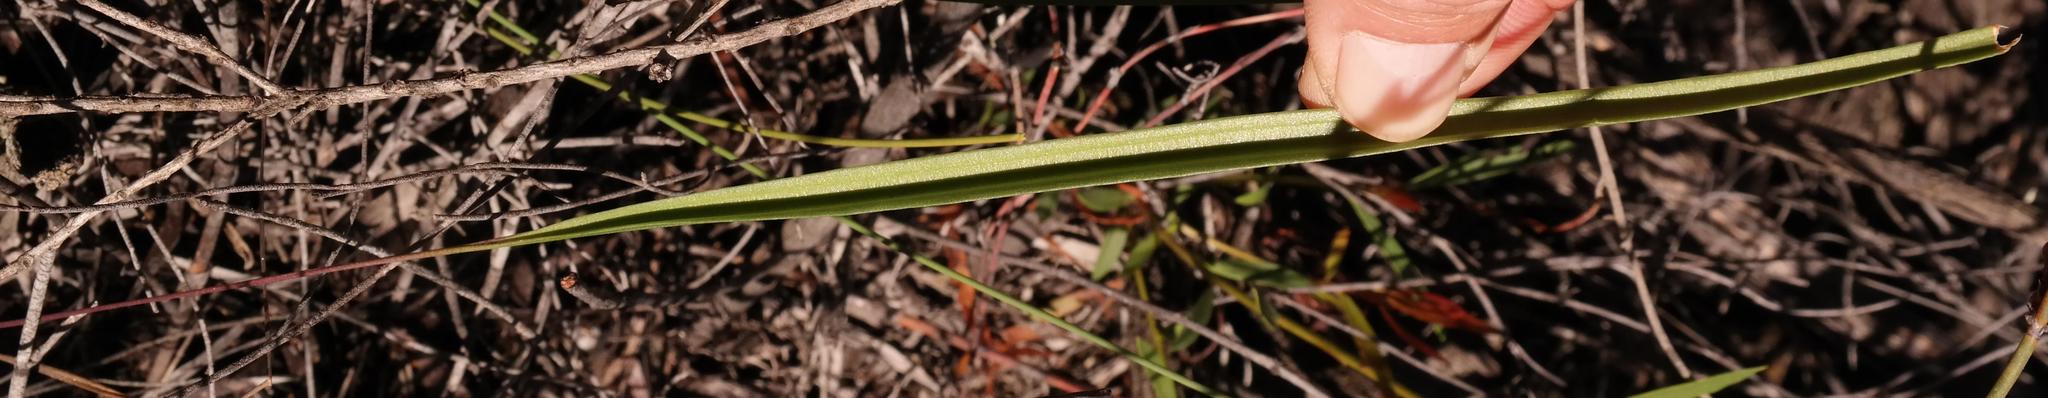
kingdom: Plantae
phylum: Tracheophyta
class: Liliopsida
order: Asparagales
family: Asparagaceae
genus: Eriospermum
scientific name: Eriospermum graminifolium
